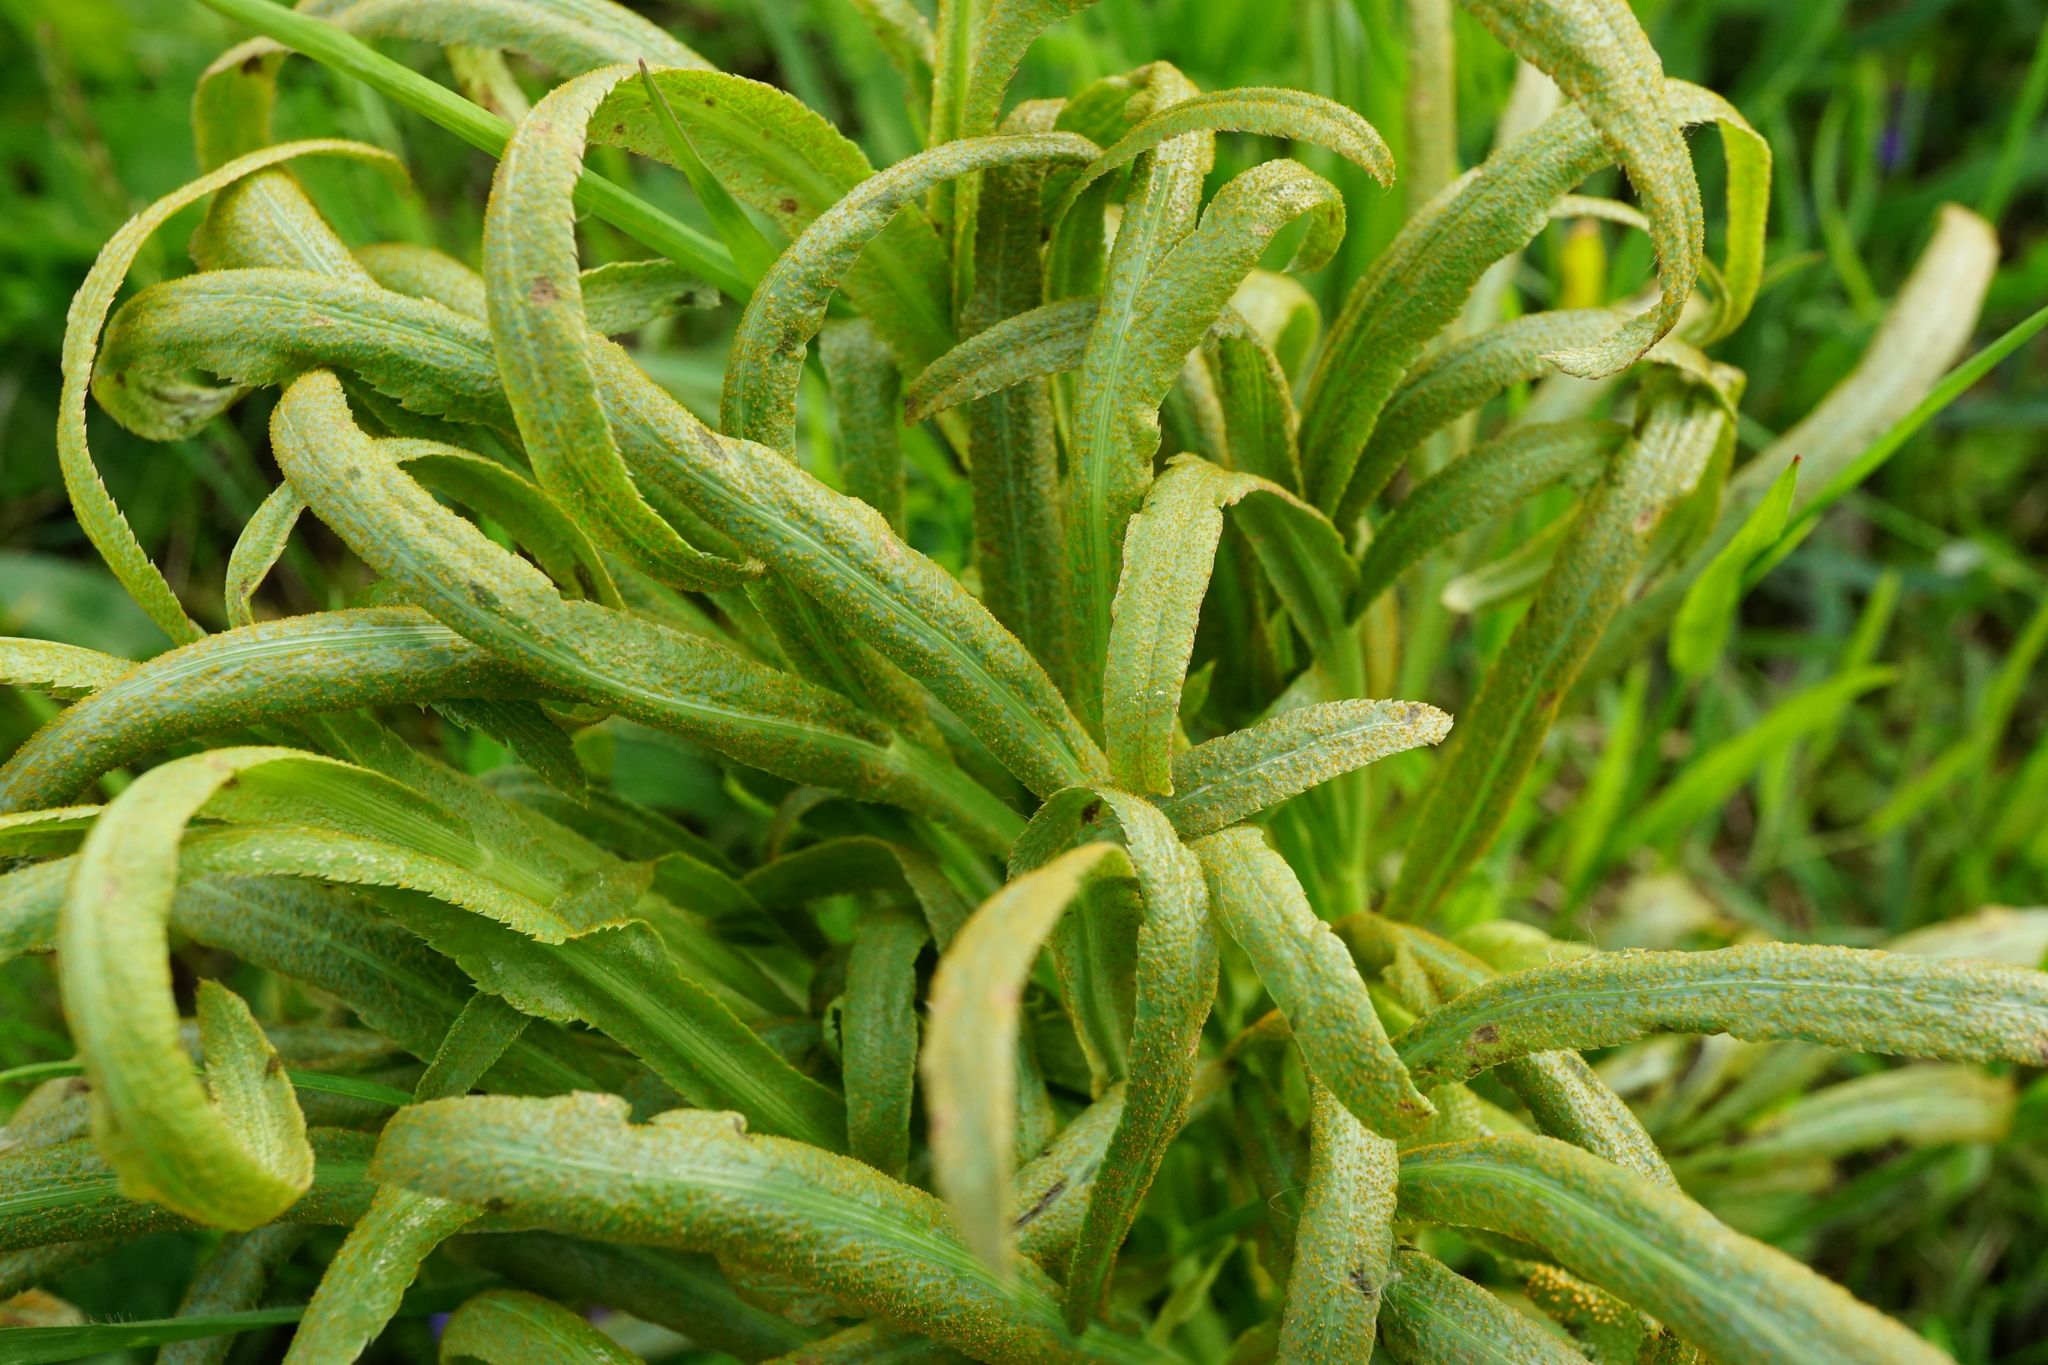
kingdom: Fungi
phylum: Basidiomycota
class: Pucciniomycetes
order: Pucciniales
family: Pucciniaceae
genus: Puccinia
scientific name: Puccinia sii-falcariae
